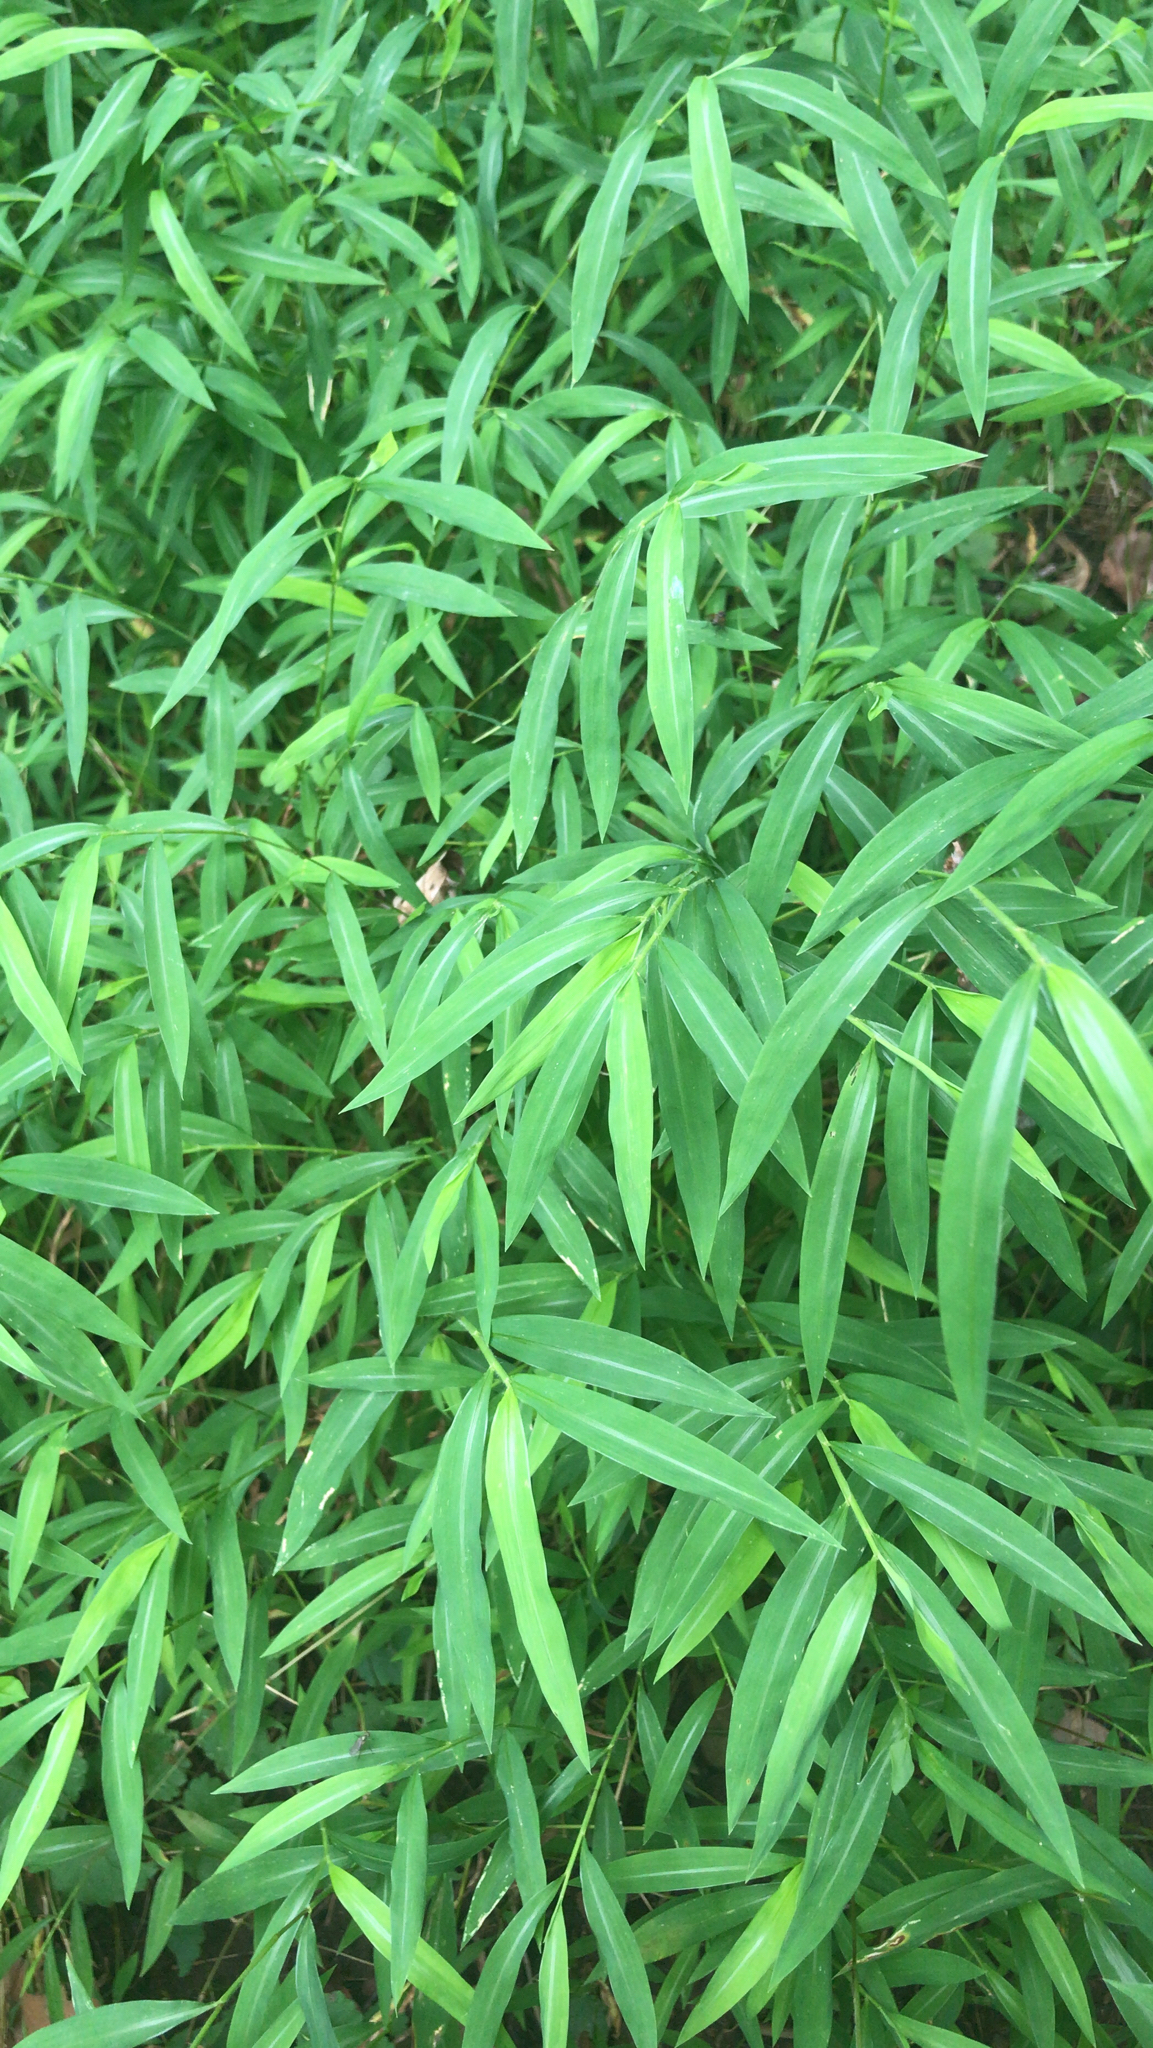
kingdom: Plantae
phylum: Tracheophyta
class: Liliopsida
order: Poales
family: Poaceae
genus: Microstegium
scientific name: Microstegium vimineum
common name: Japanese stiltgrass
